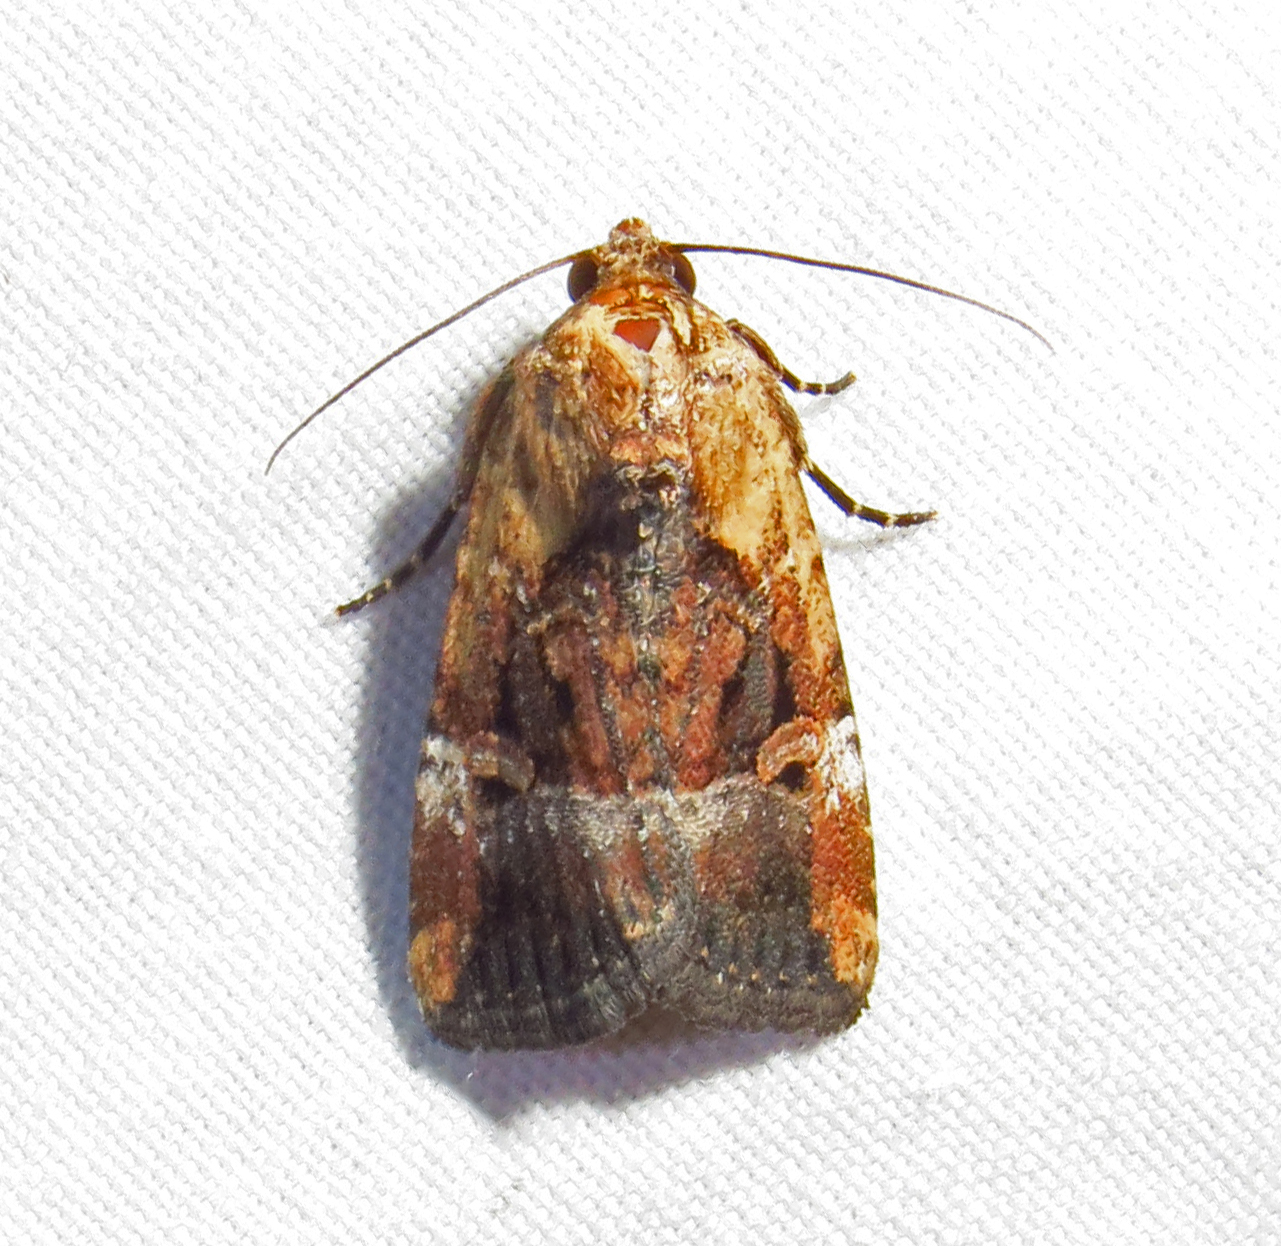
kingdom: Animalia
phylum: Arthropoda
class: Insecta
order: Lepidoptera
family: Noctuidae
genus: Elaphria
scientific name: Elaphria chalcedonia
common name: Chalcedony midget
